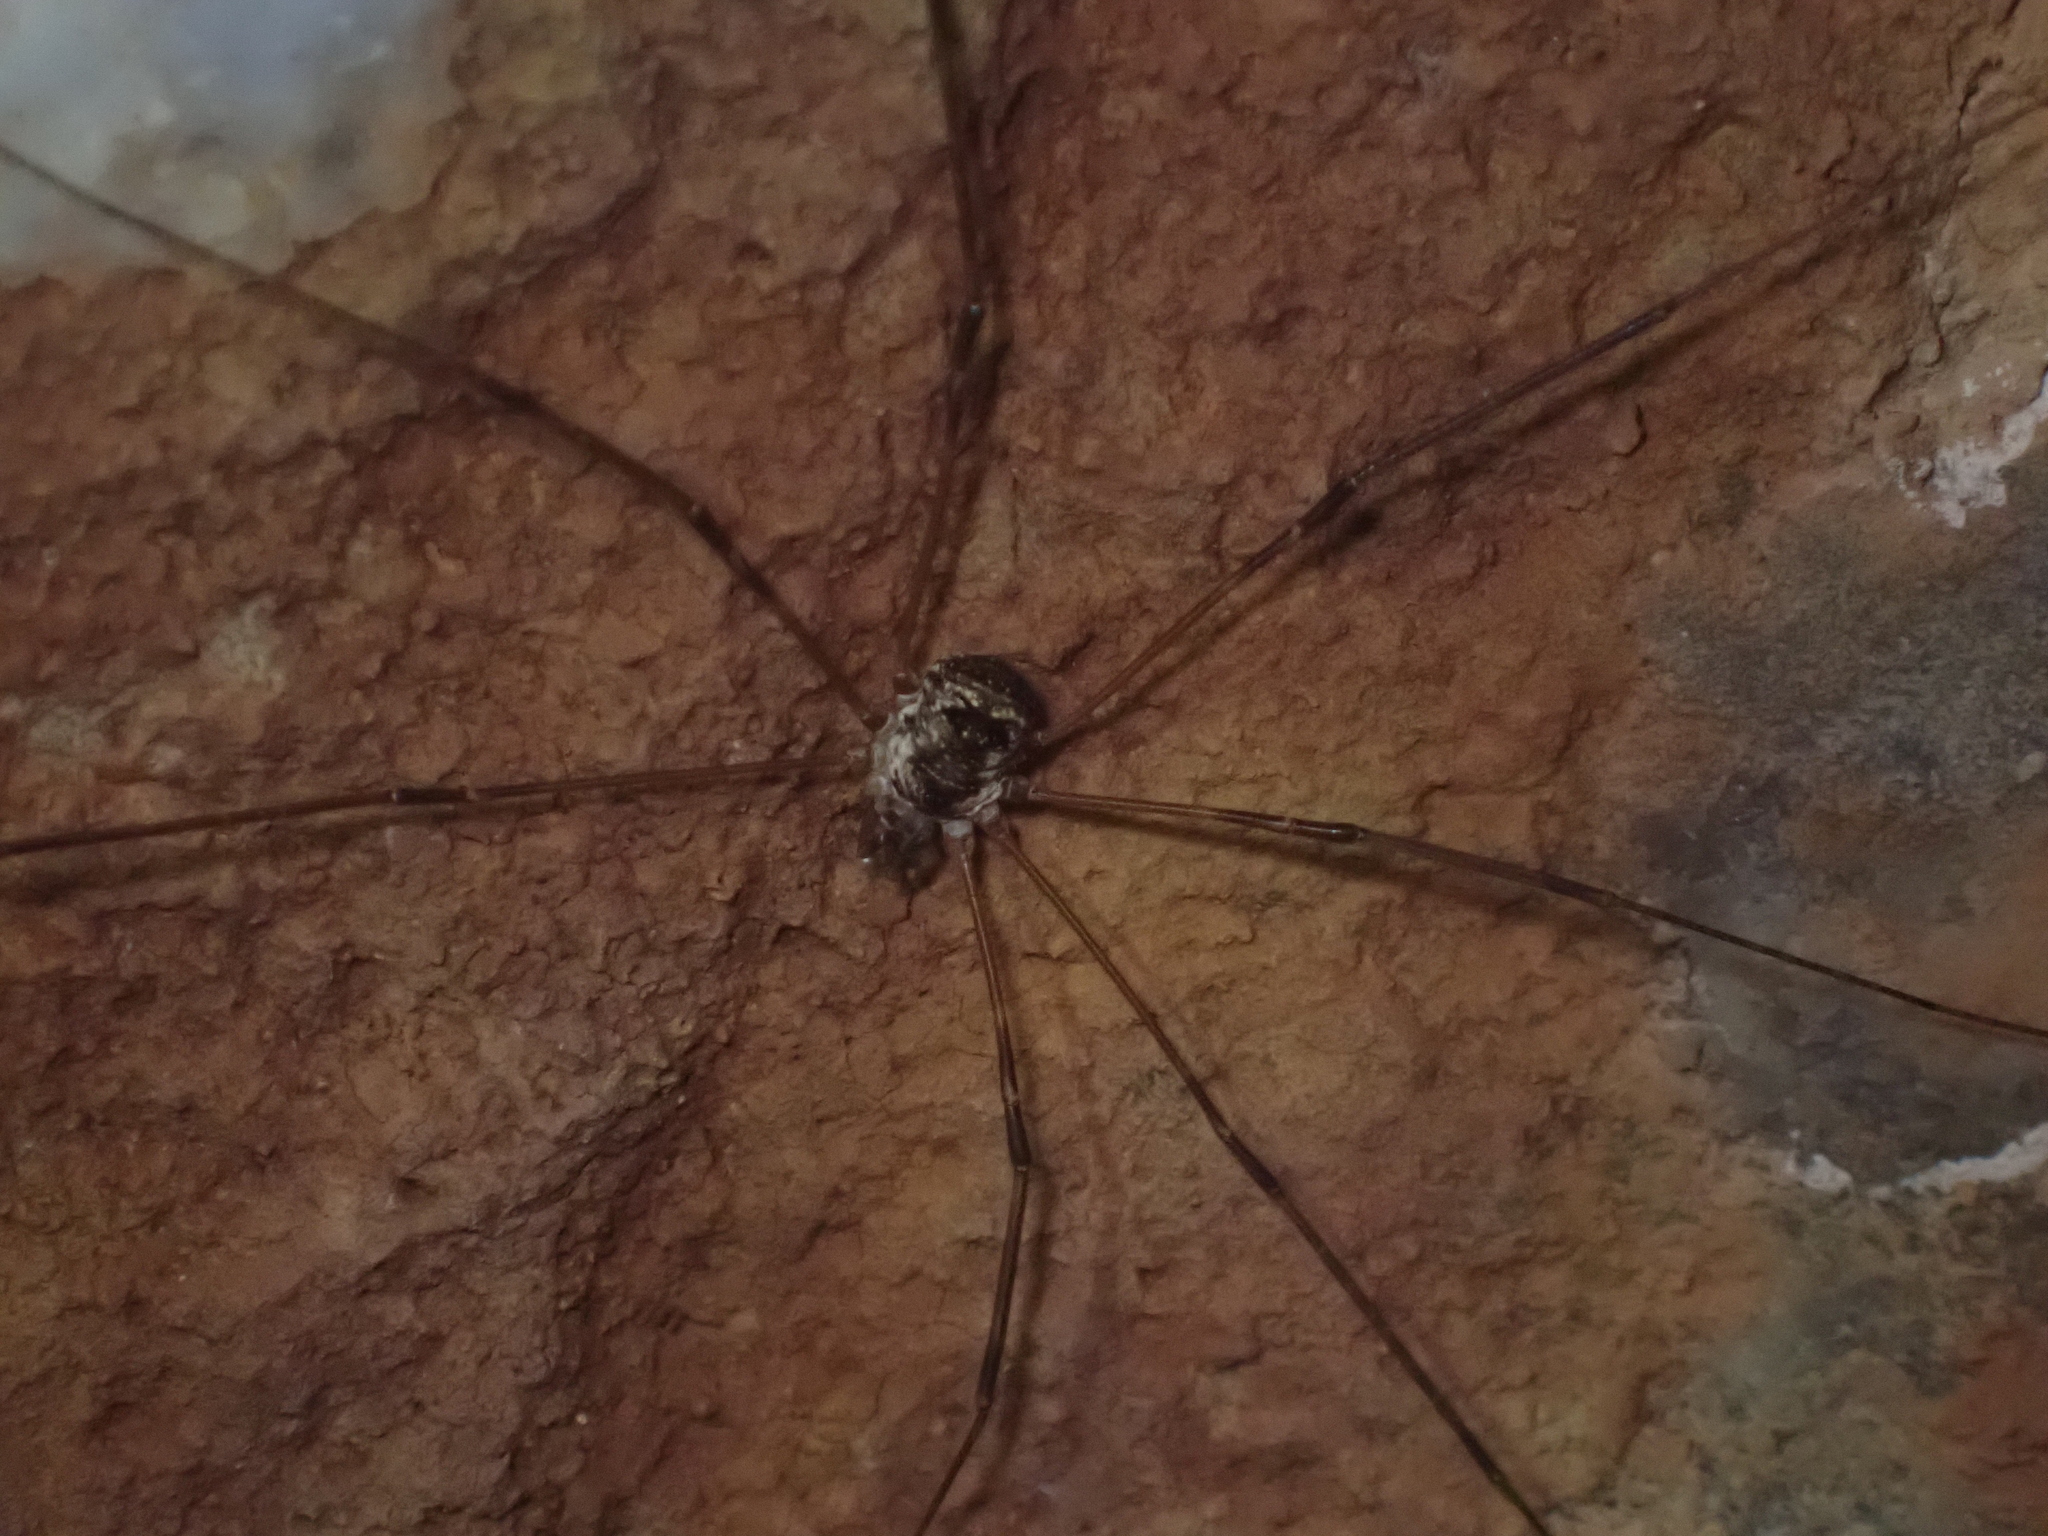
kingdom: Animalia
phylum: Arthropoda
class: Arachnida
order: Opiliones
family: Phalangiidae
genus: Amilenus
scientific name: Amilenus aurantiacus
